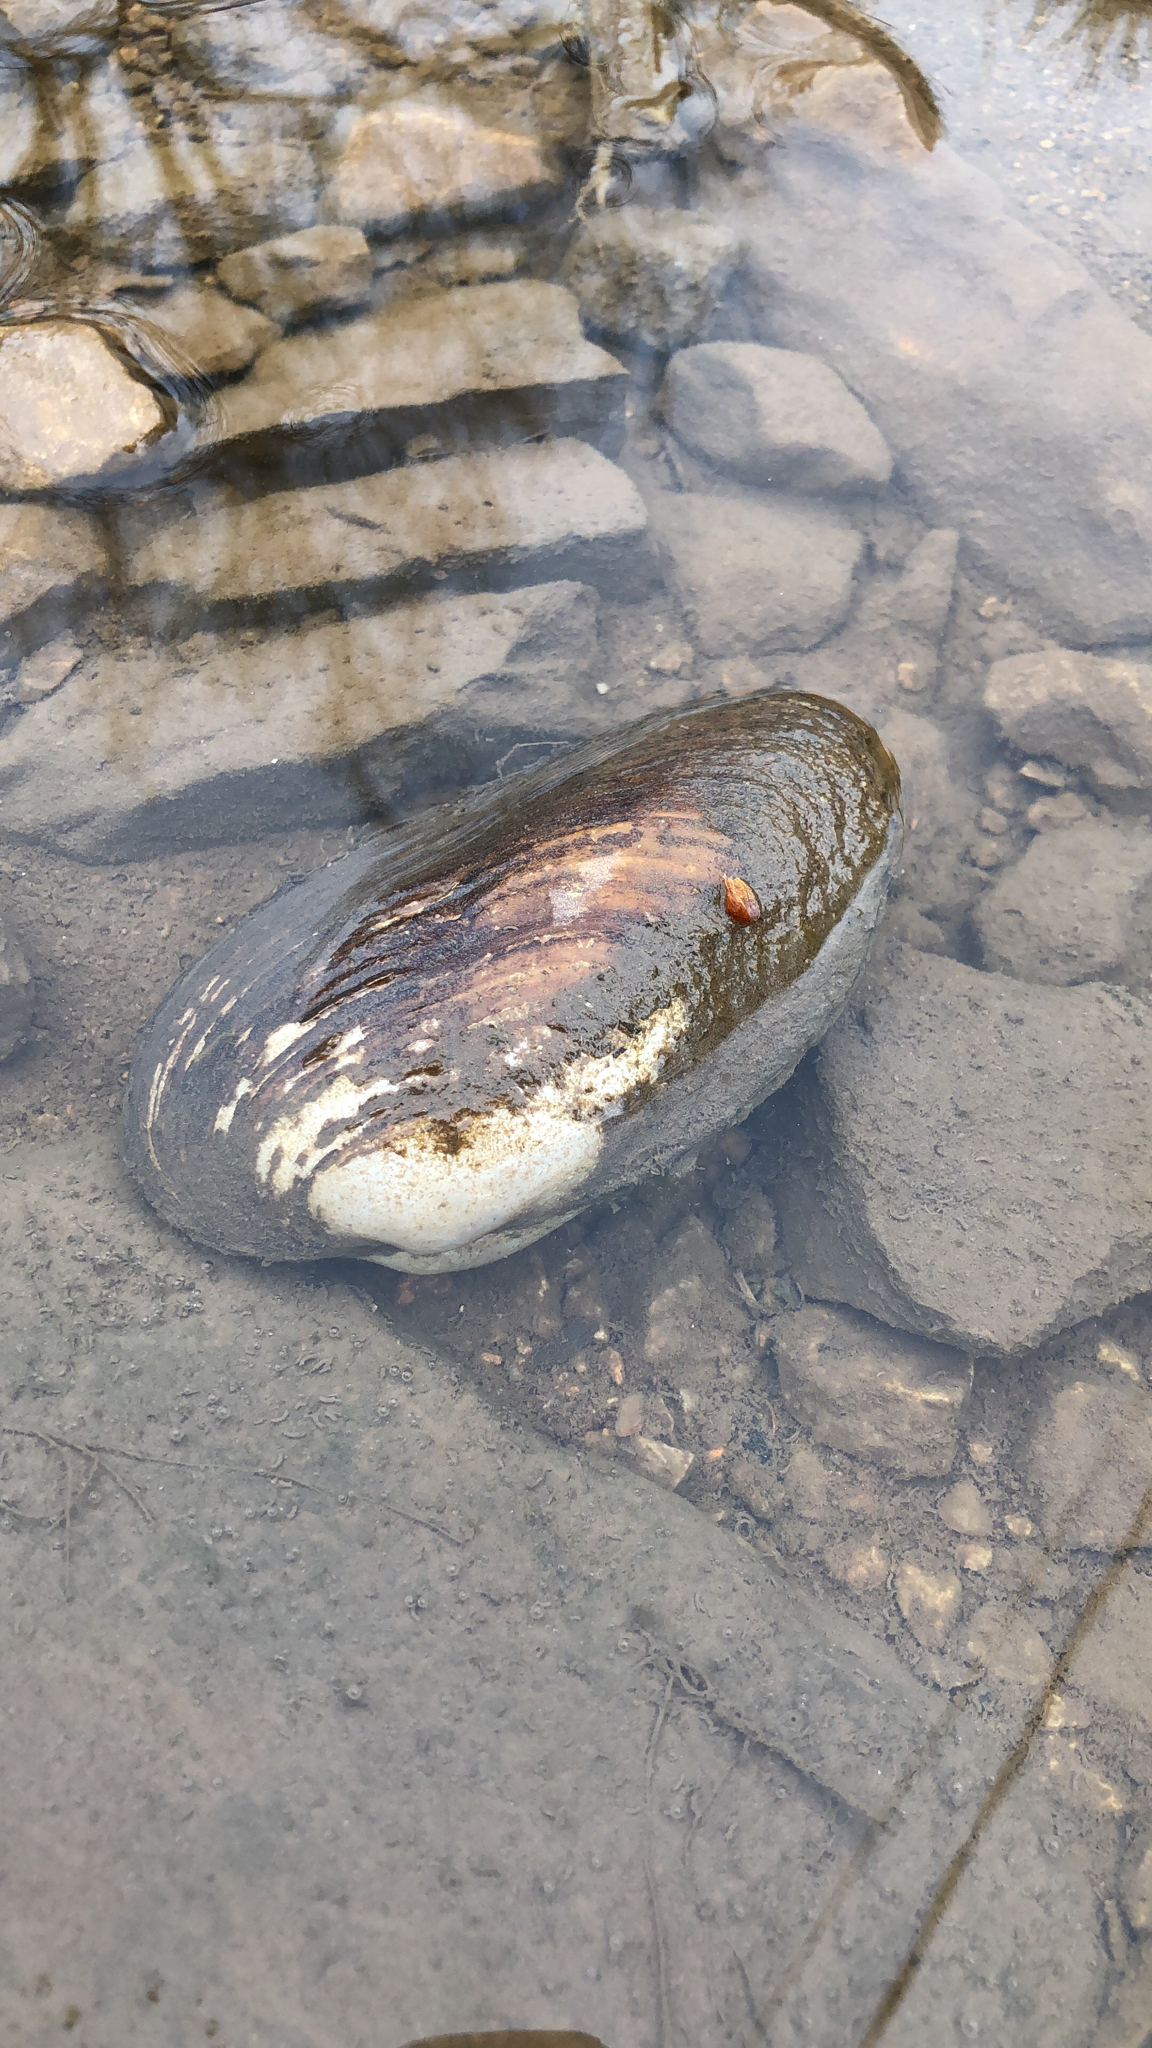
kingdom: Animalia
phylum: Mollusca
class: Bivalvia
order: Unionida
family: Unionidae
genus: Uniomerus
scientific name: Uniomerus tetralasmus
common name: Pondhorn
